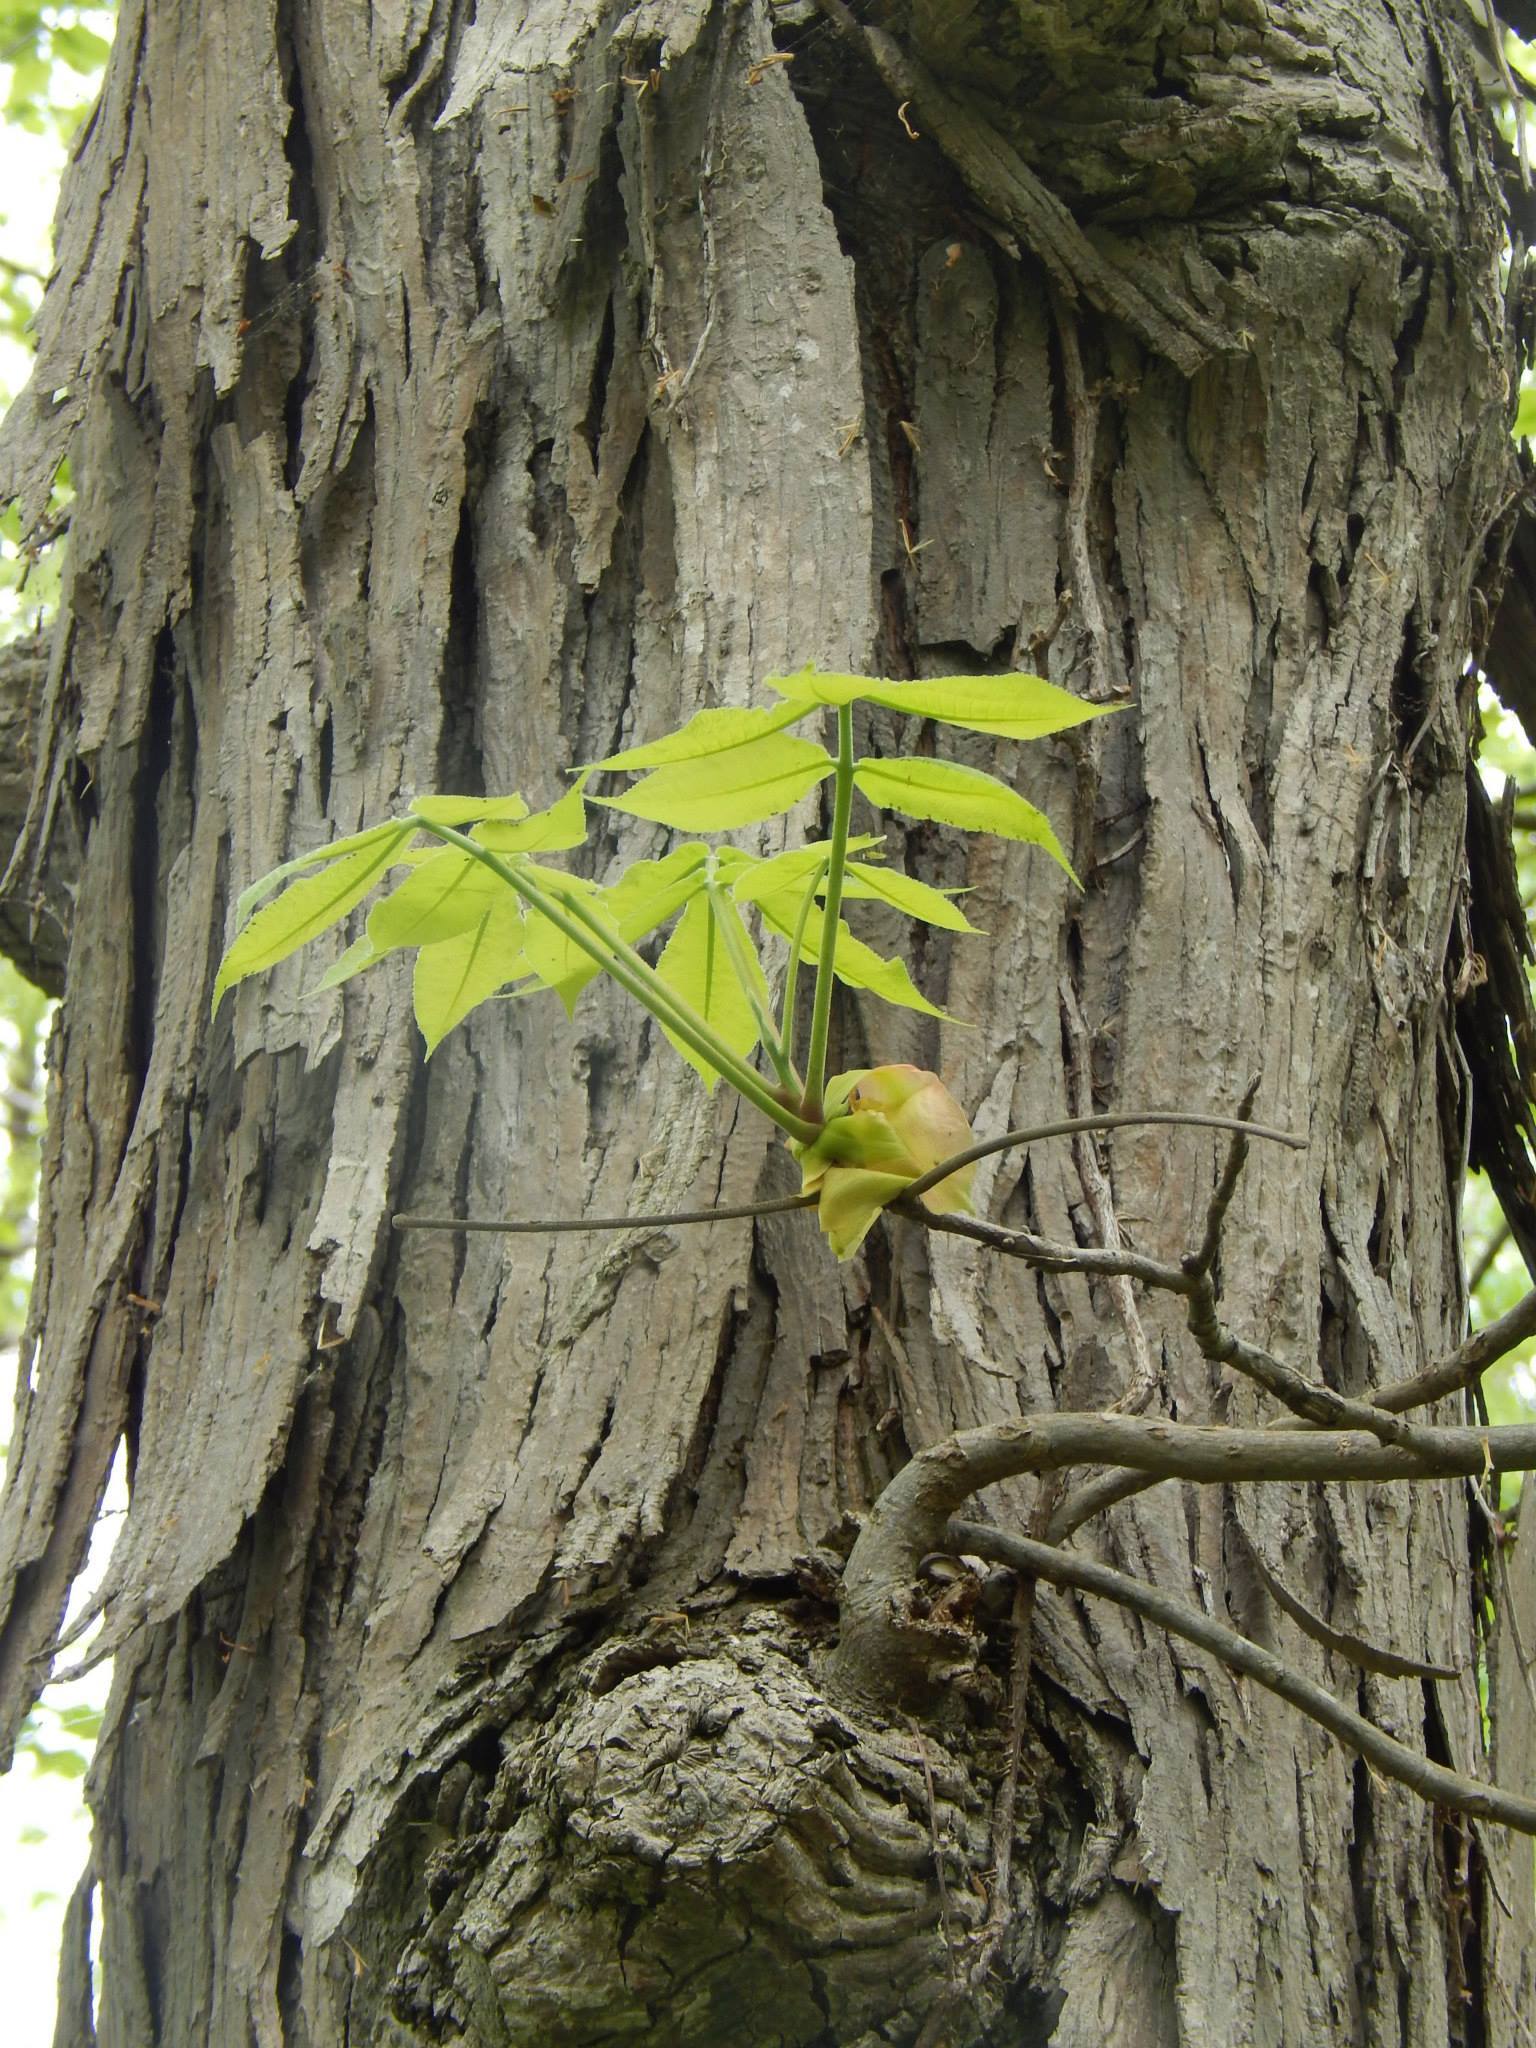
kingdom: Plantae
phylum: Tracheophyta
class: Magnoliopsida
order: Fagales
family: Juglandaceae
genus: Carya
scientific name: Carya ovata
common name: Shagbark hickory
